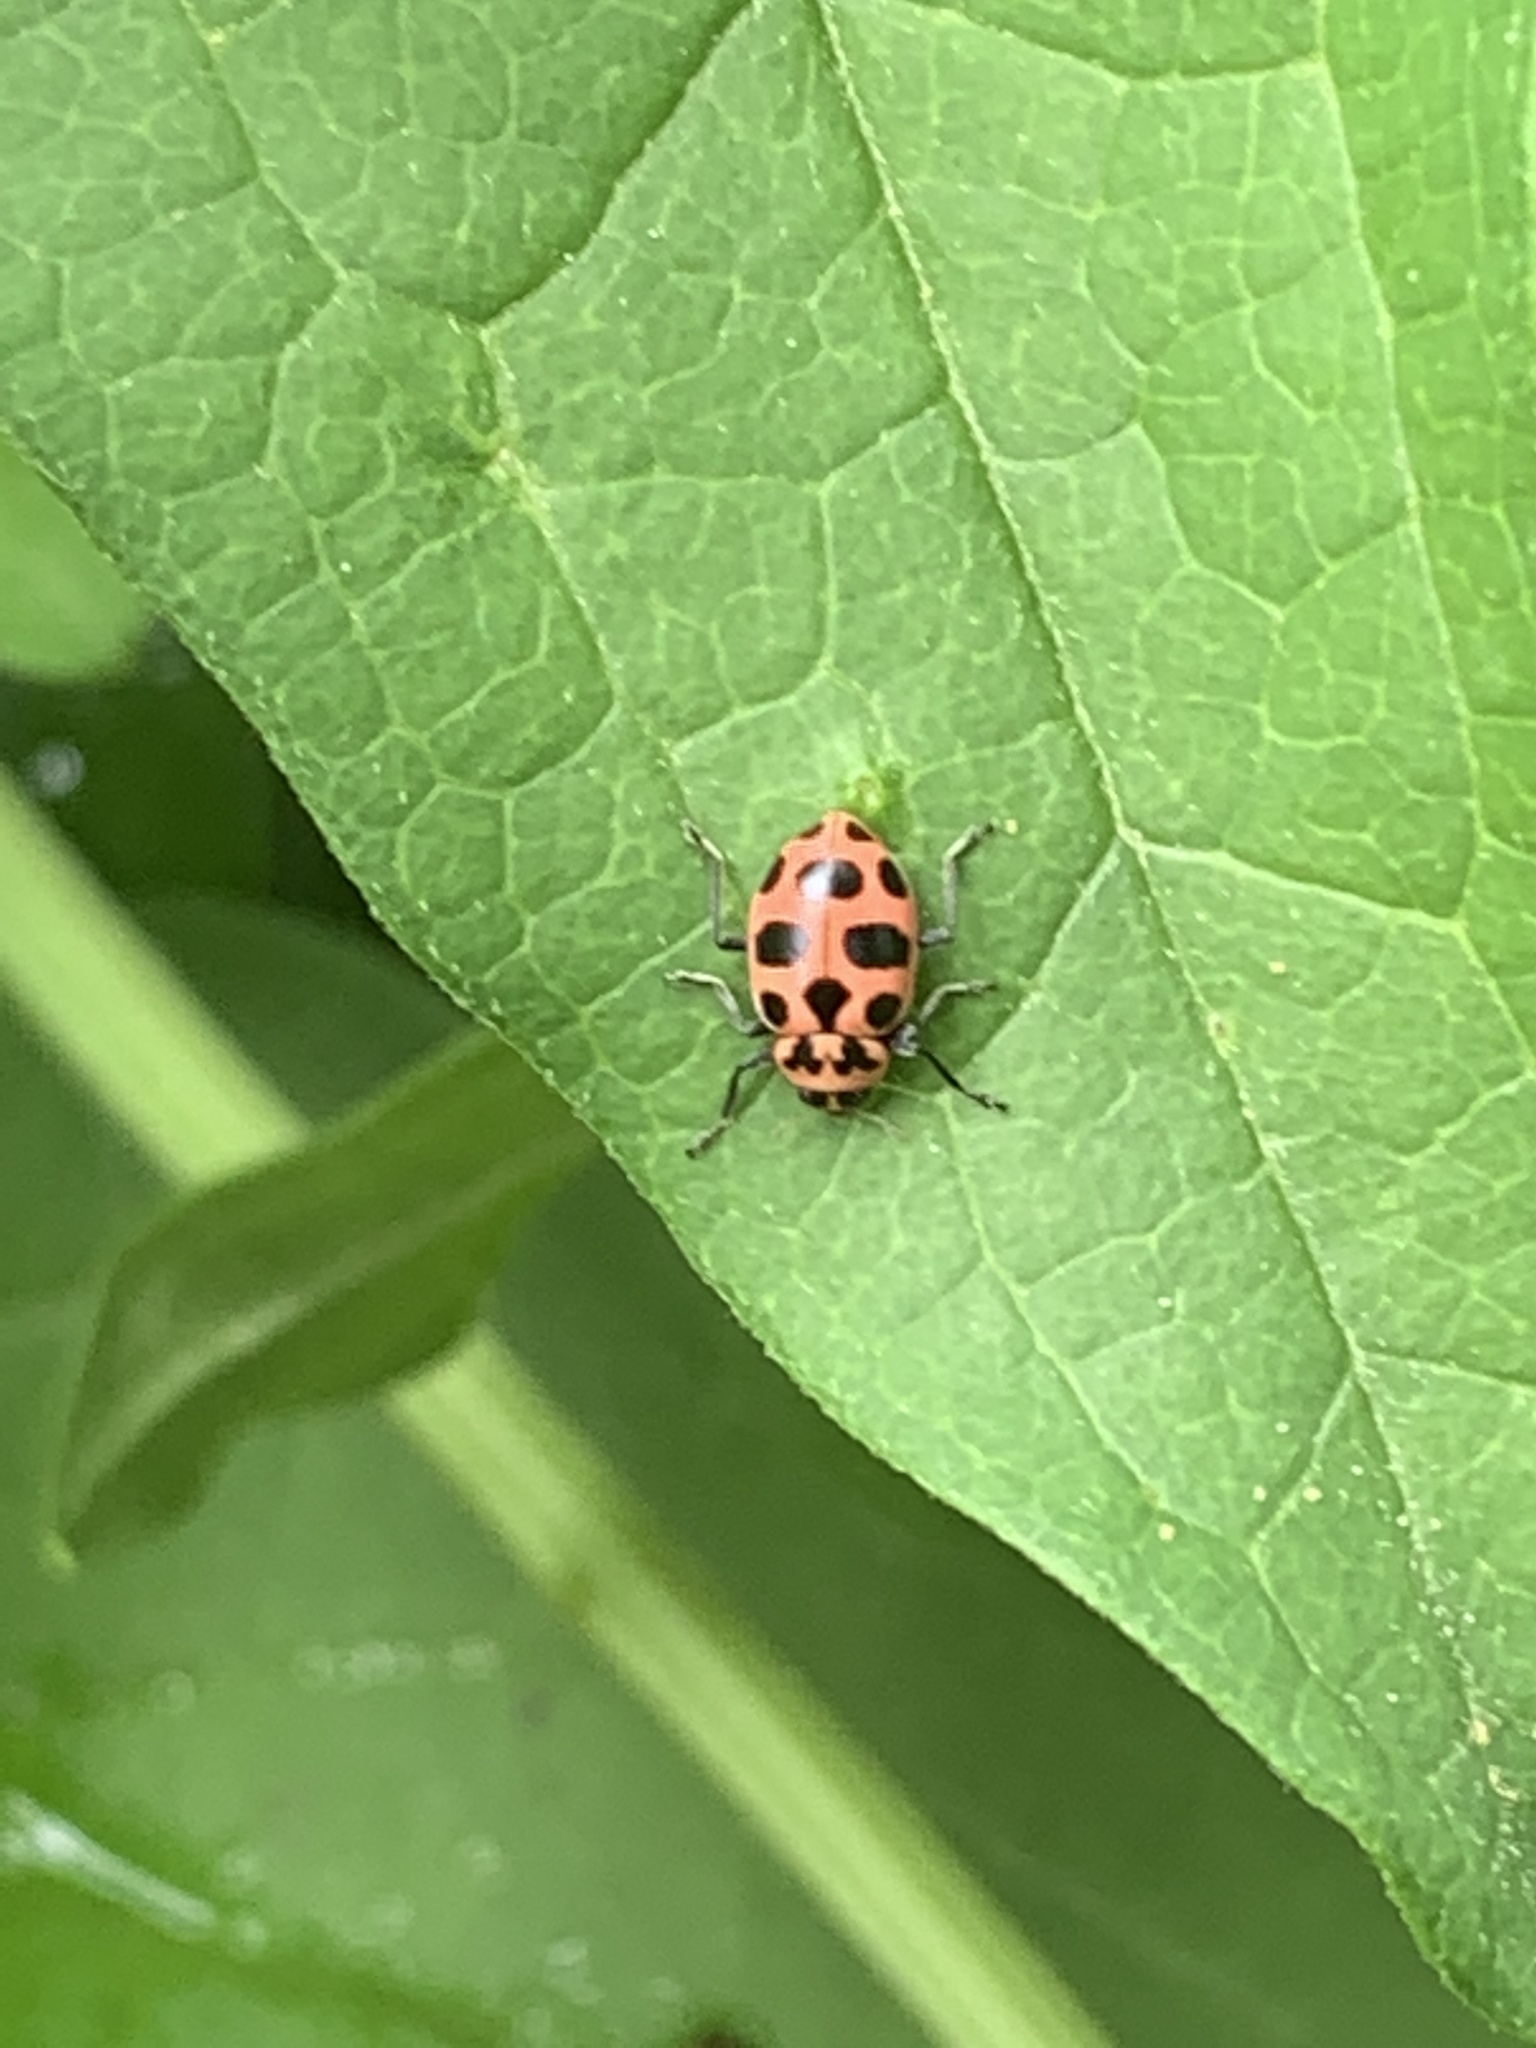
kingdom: Animalia
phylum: Arthropoda
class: Insecta
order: Coleoptera
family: Coccinellidae
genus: Coleomegilla
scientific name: Coleomegilla maculata
